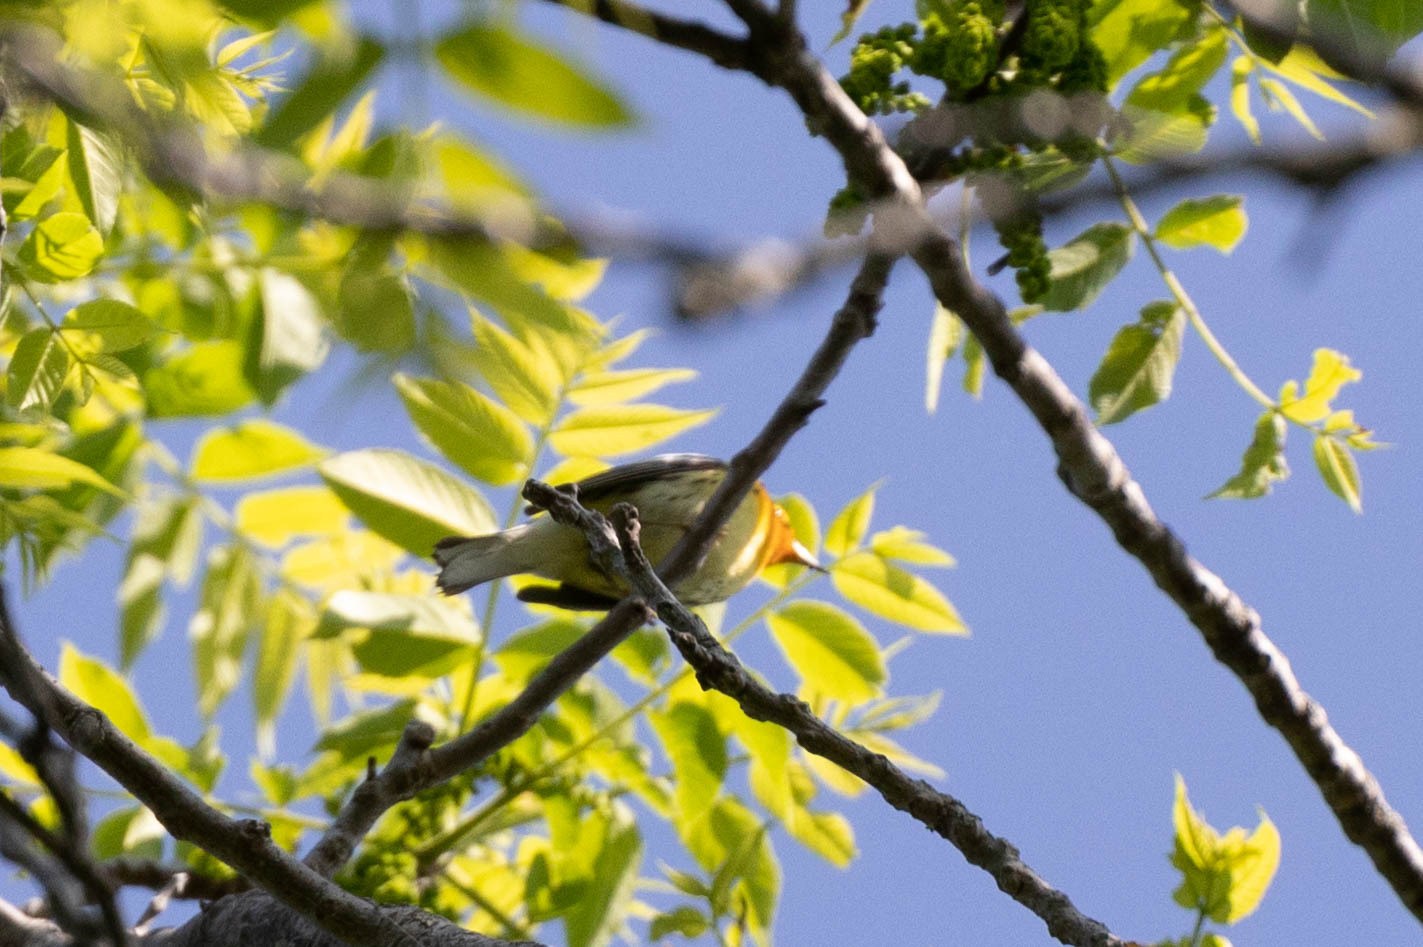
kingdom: Animalia
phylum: Chordata
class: Aves
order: Passeriformes
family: Parulidae
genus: Setophaga
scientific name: Setophaga fusca
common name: Blackburnian warbler
